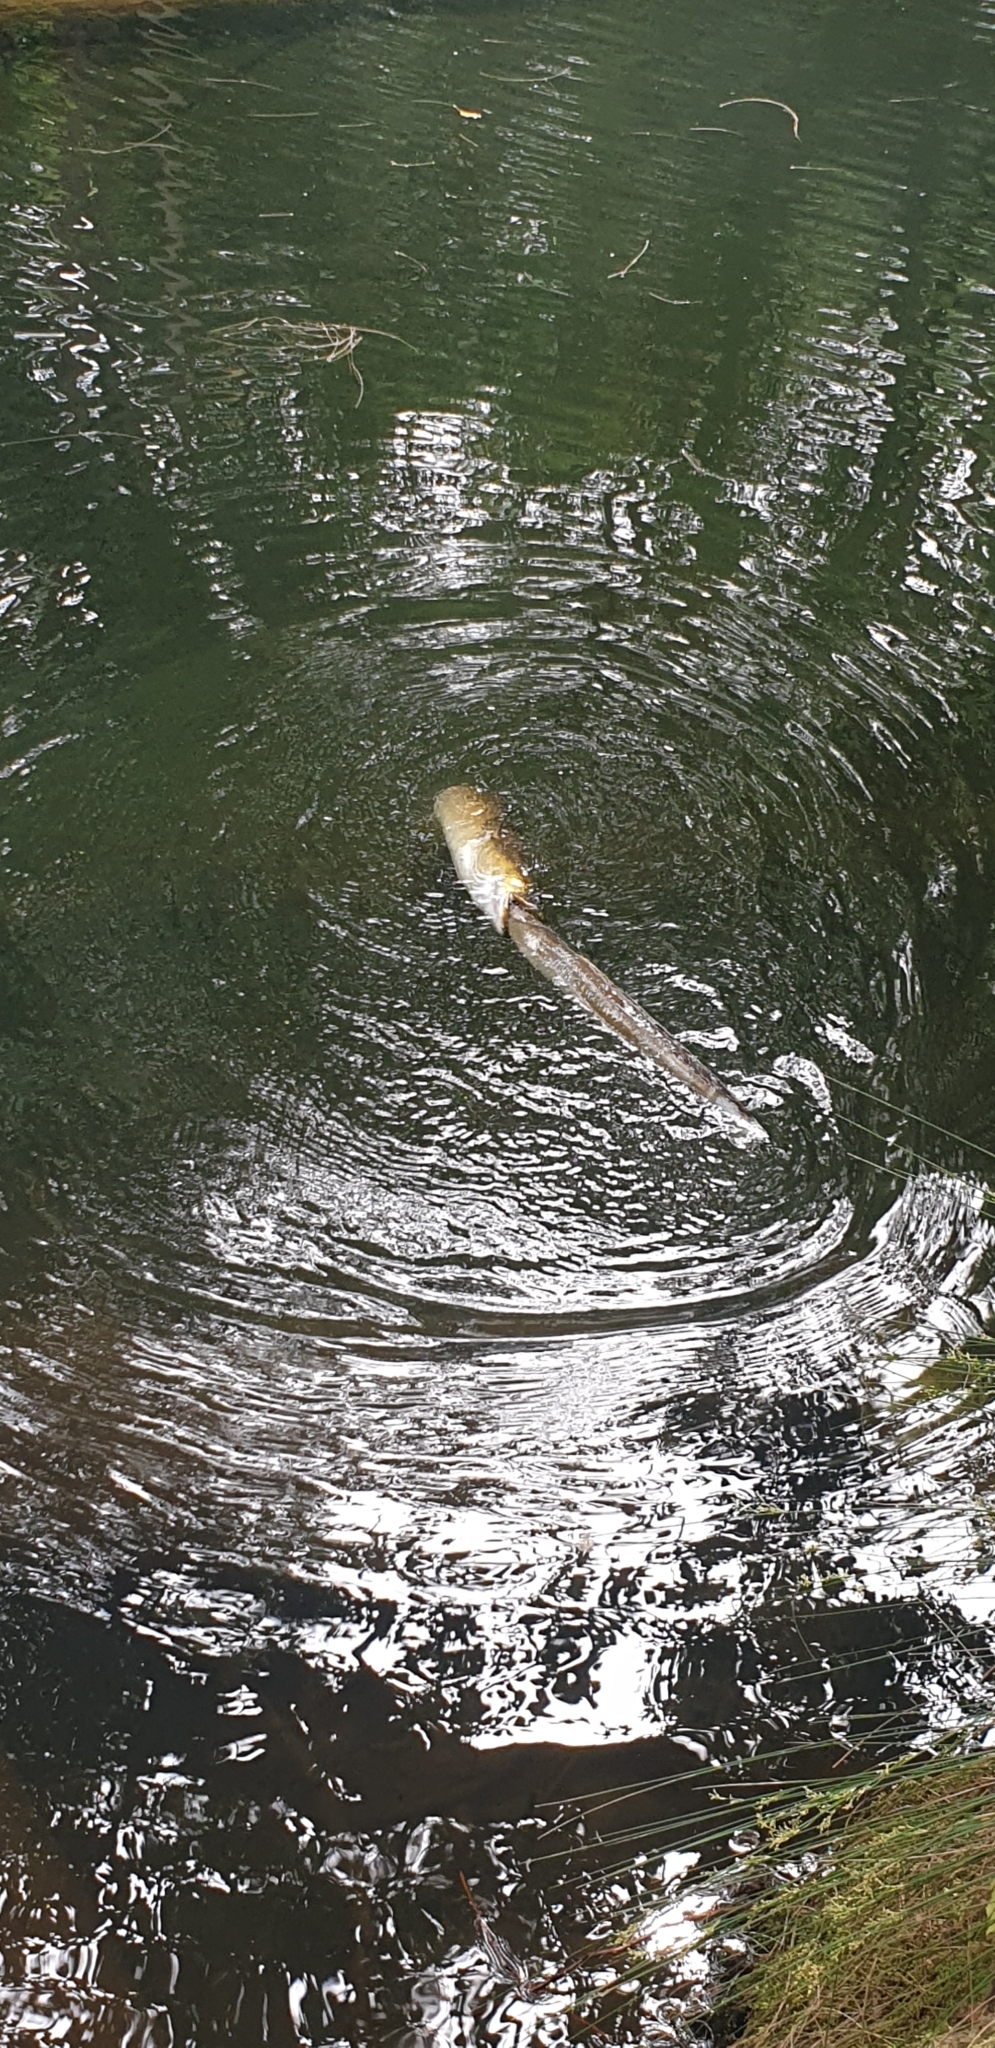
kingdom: Animalia
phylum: Chordata
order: Anguilliformes
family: Anguillidae
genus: Anguilla
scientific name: Anguilla reinhardtii
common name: Longfin eel
